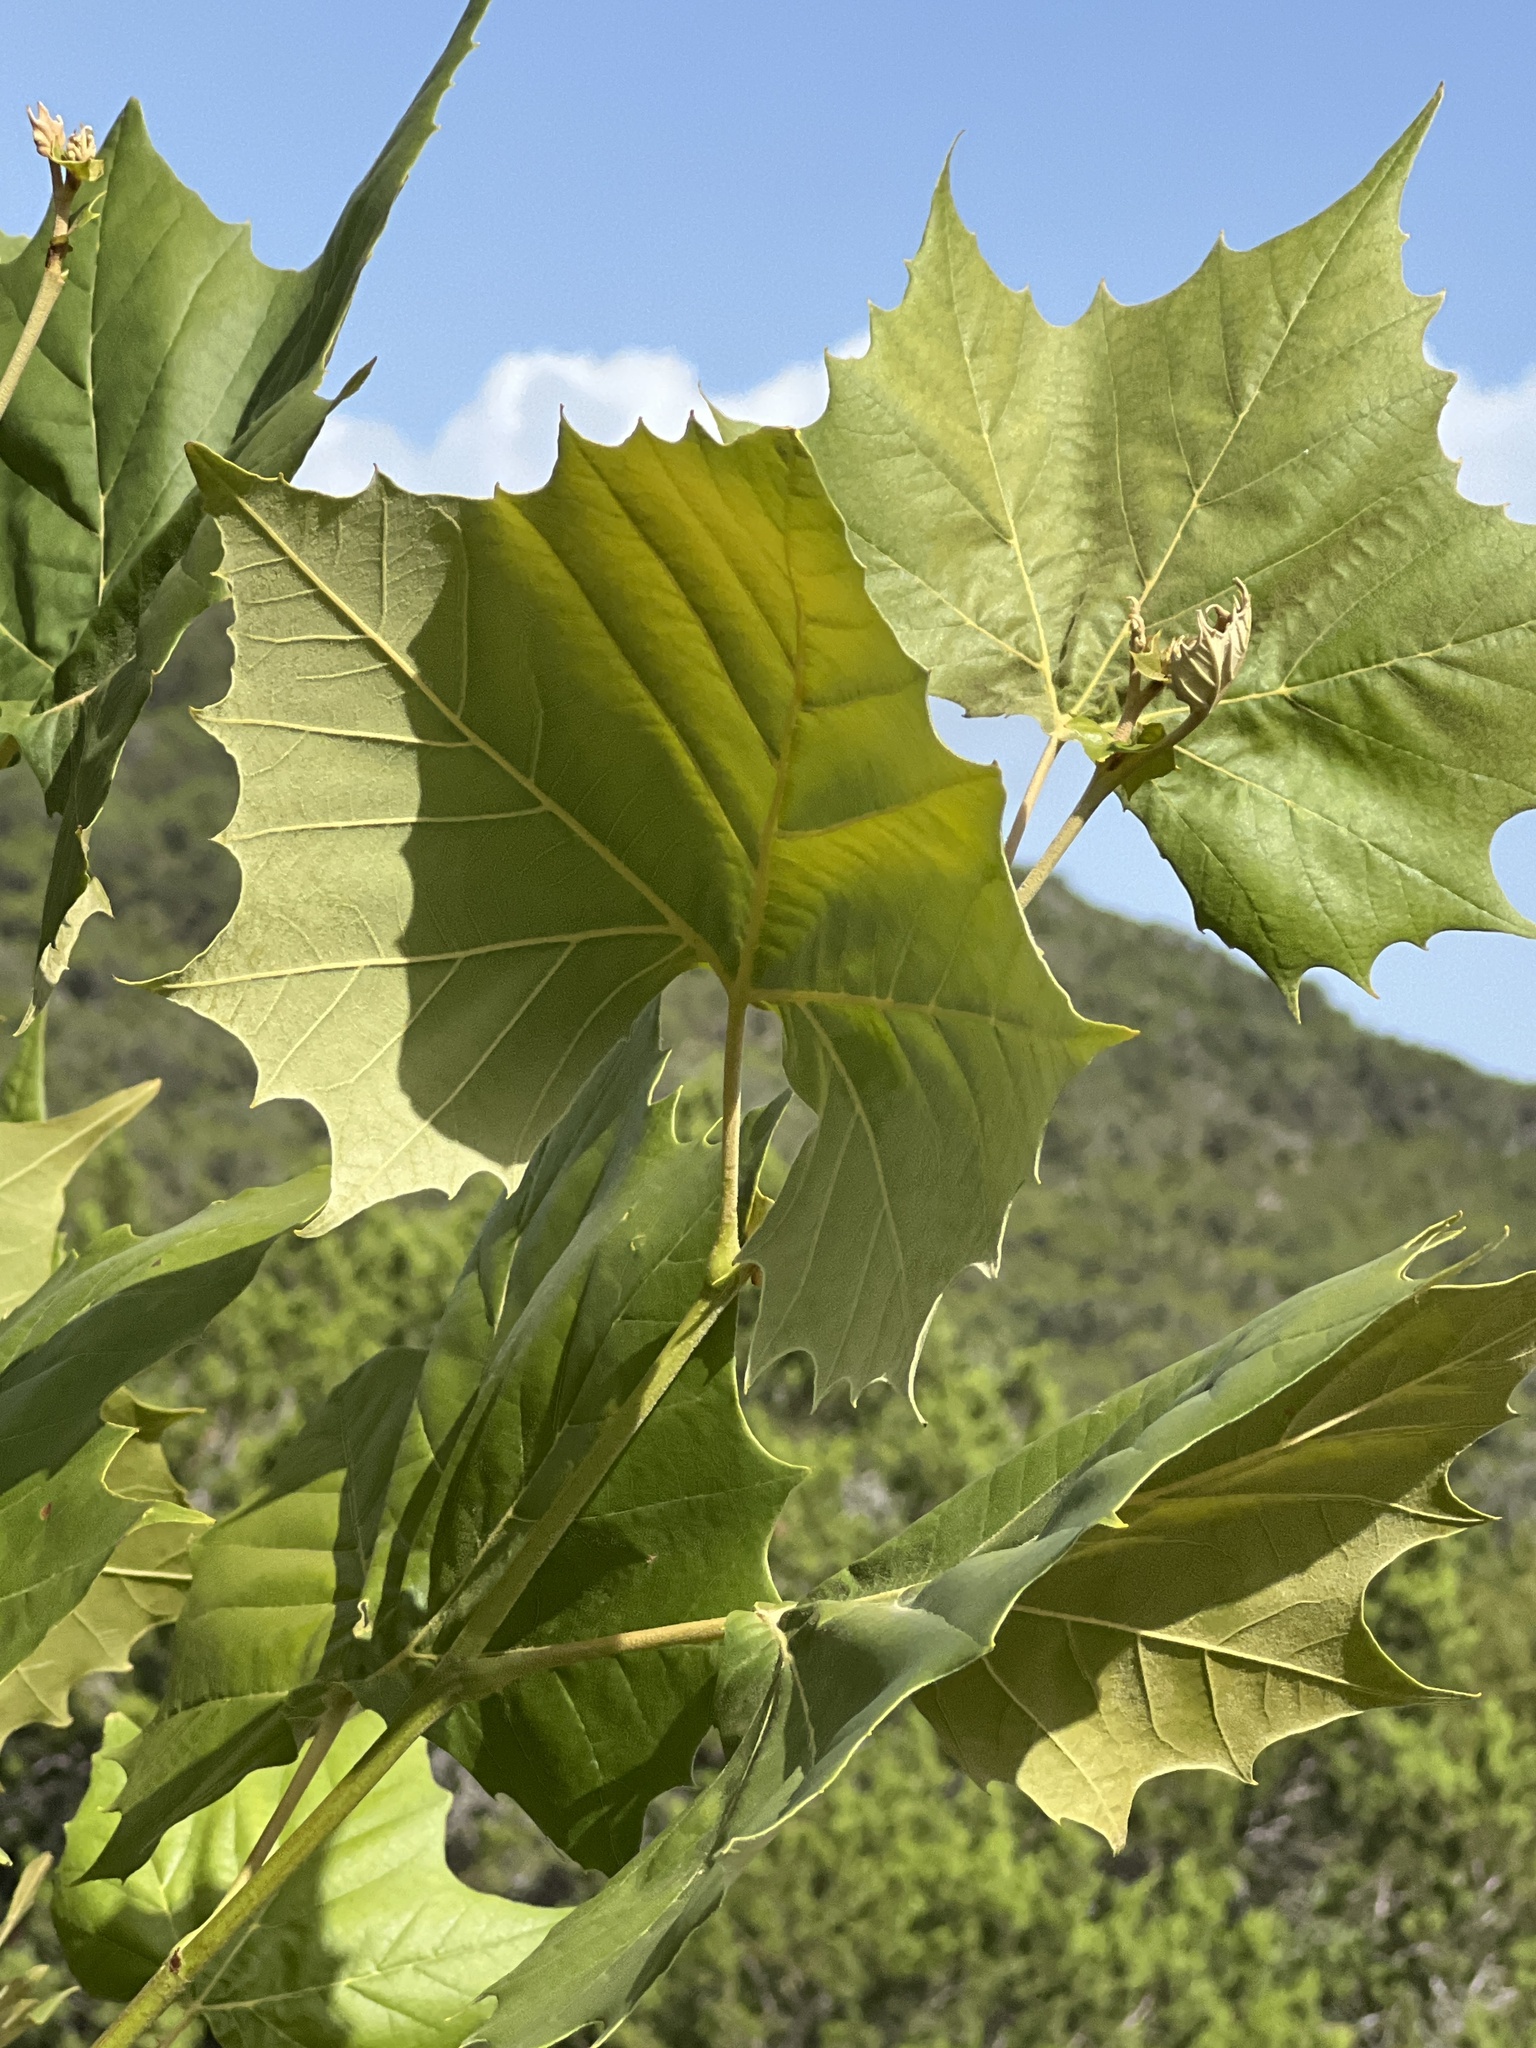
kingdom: Plantae
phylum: Tracheophyta
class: Magnoliopsida
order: Proteales
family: Platanaceae
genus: Platanus
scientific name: Platanus occidentalis
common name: American sycamore
